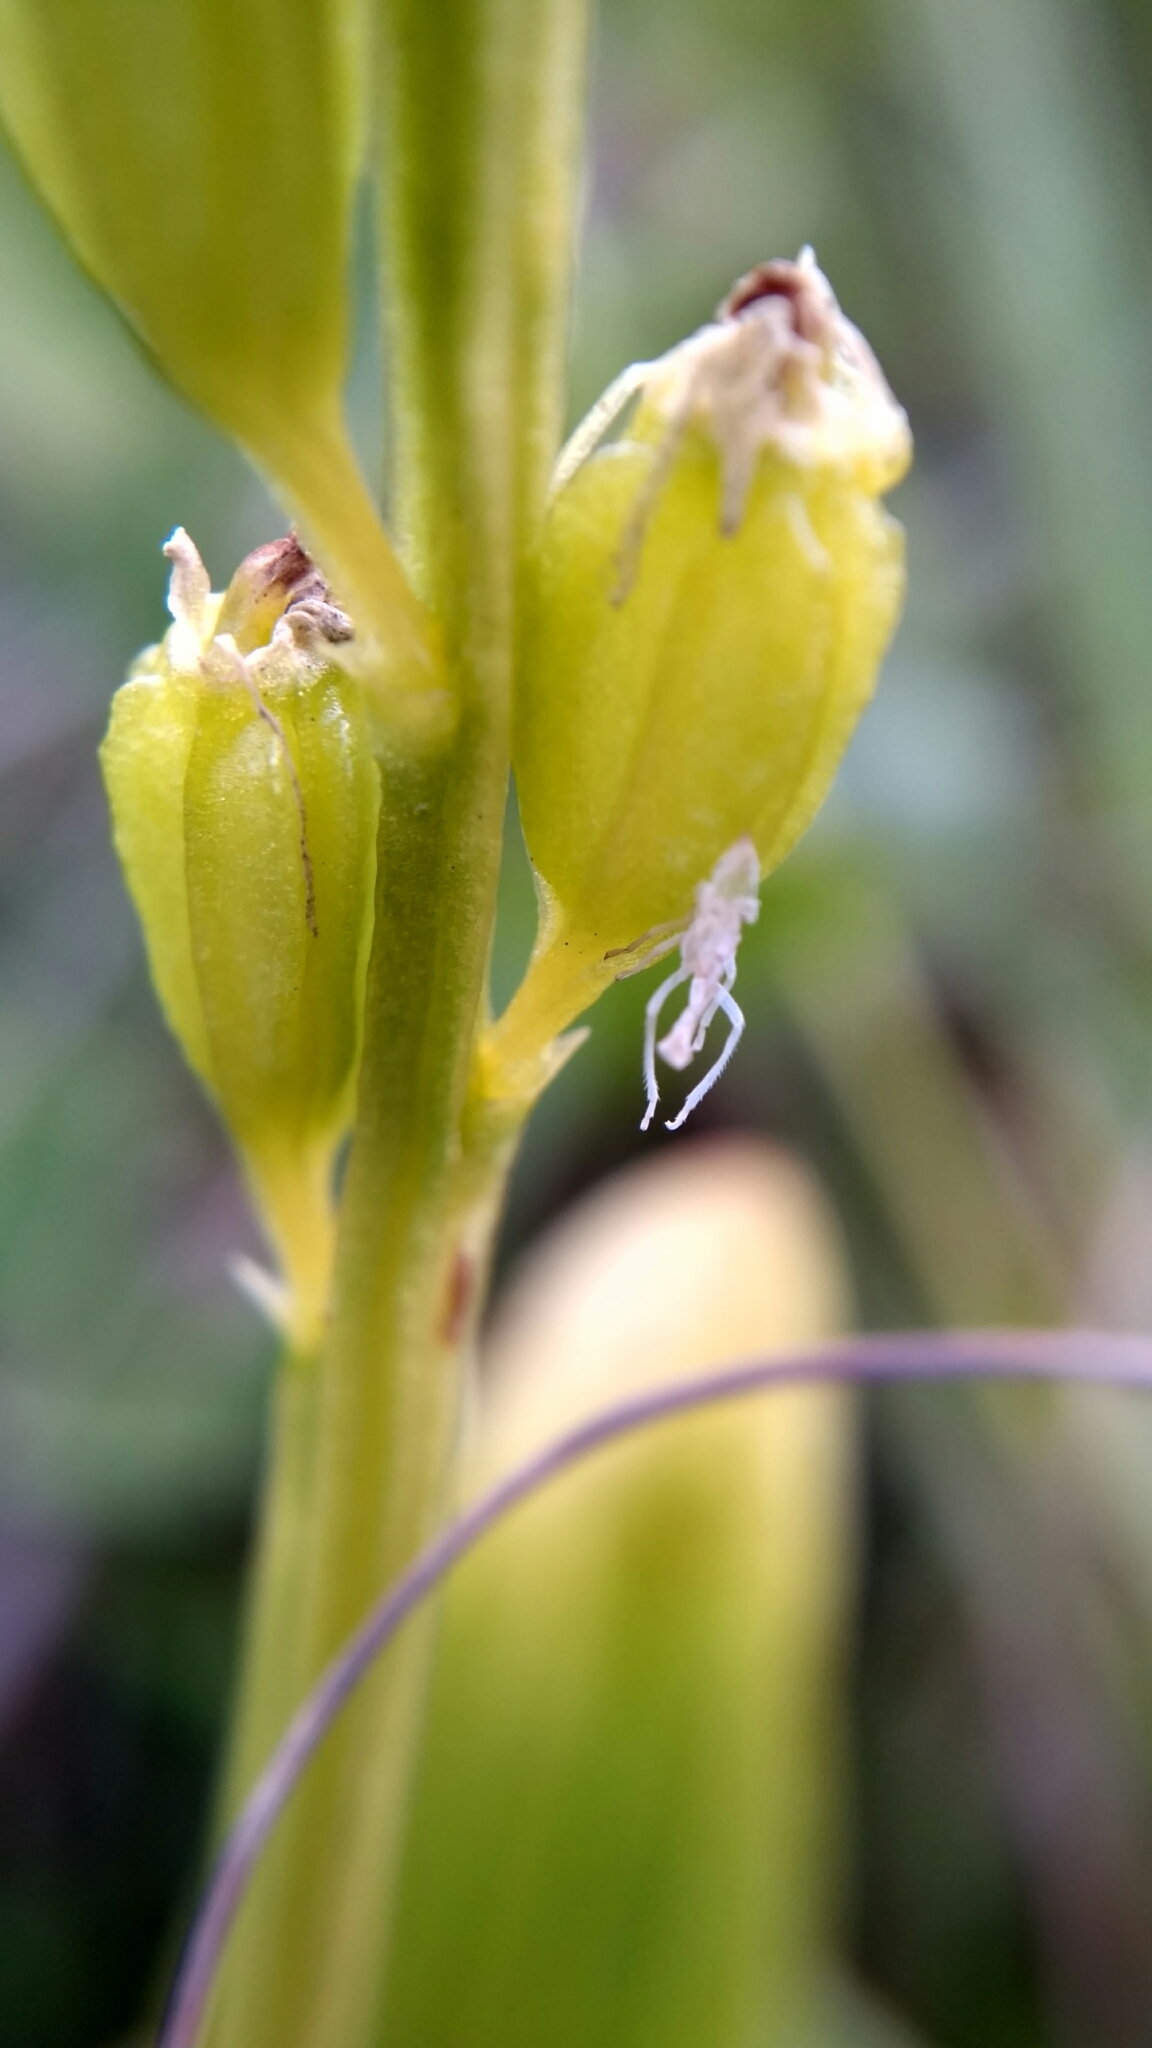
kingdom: Animalia
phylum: Arthropoda
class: Insecta
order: Coleoptera
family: Curculionidae
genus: Liparis
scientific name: Liparis loeselii
